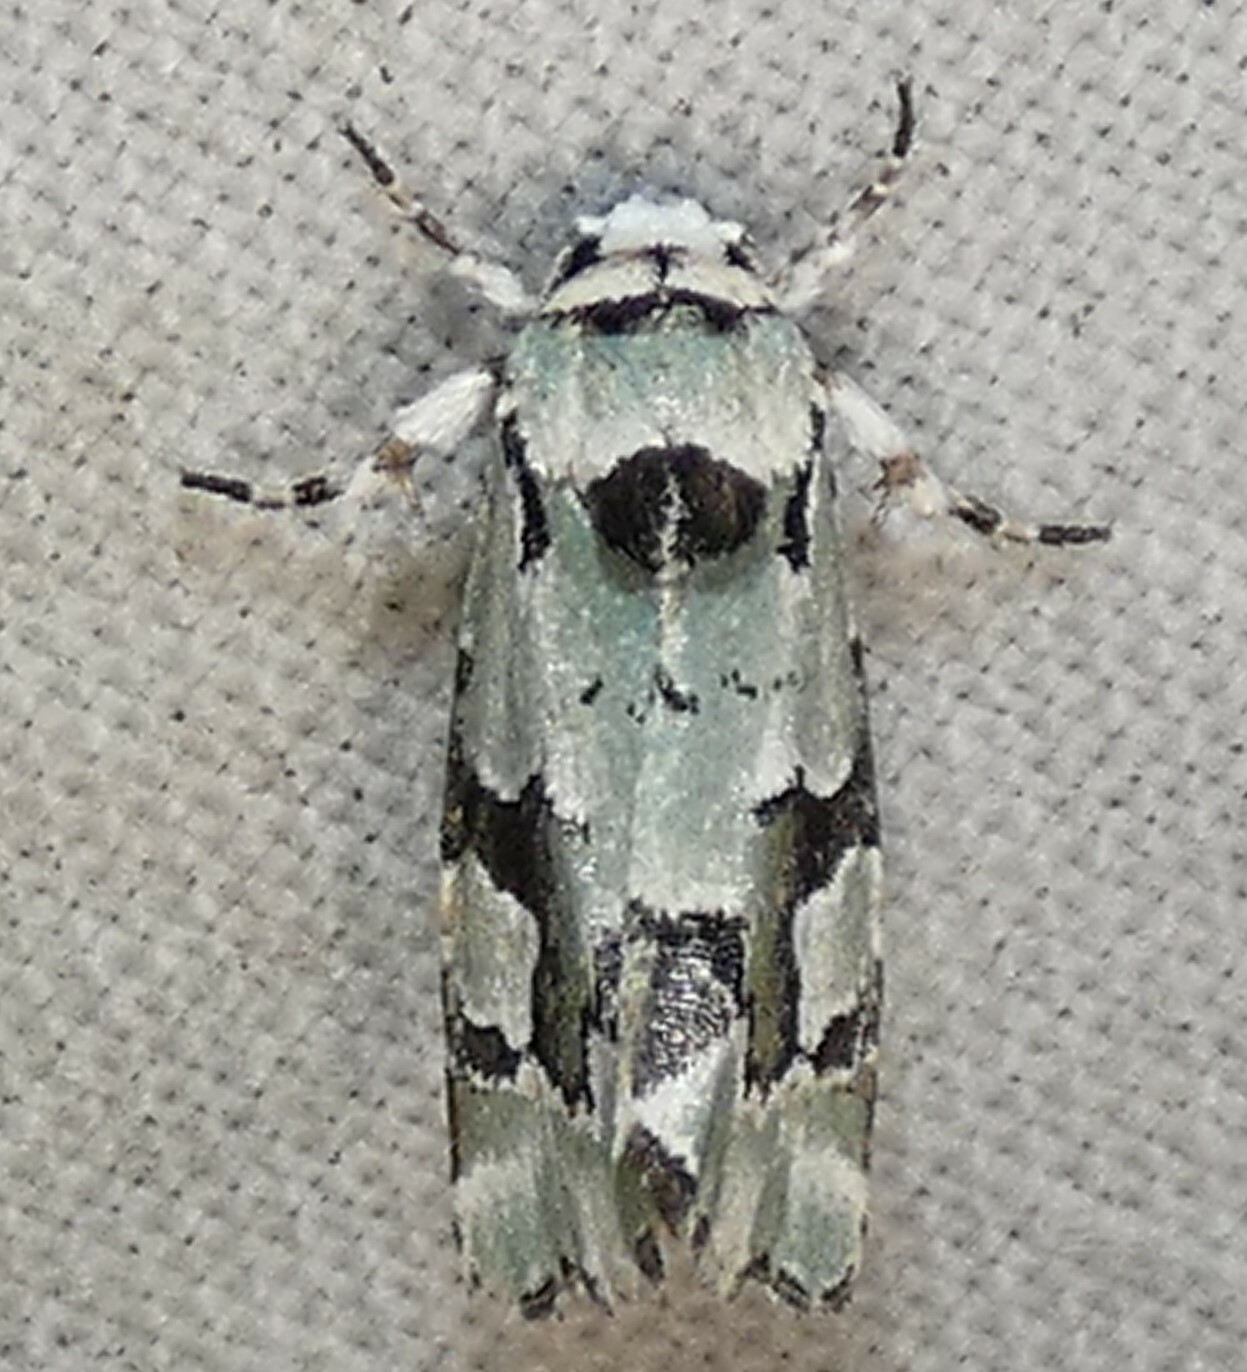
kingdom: Animalia
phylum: Arthropoda
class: Insecta
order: Lepidoptera
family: Noctuidae
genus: Emarginea
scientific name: Emarginea percara
